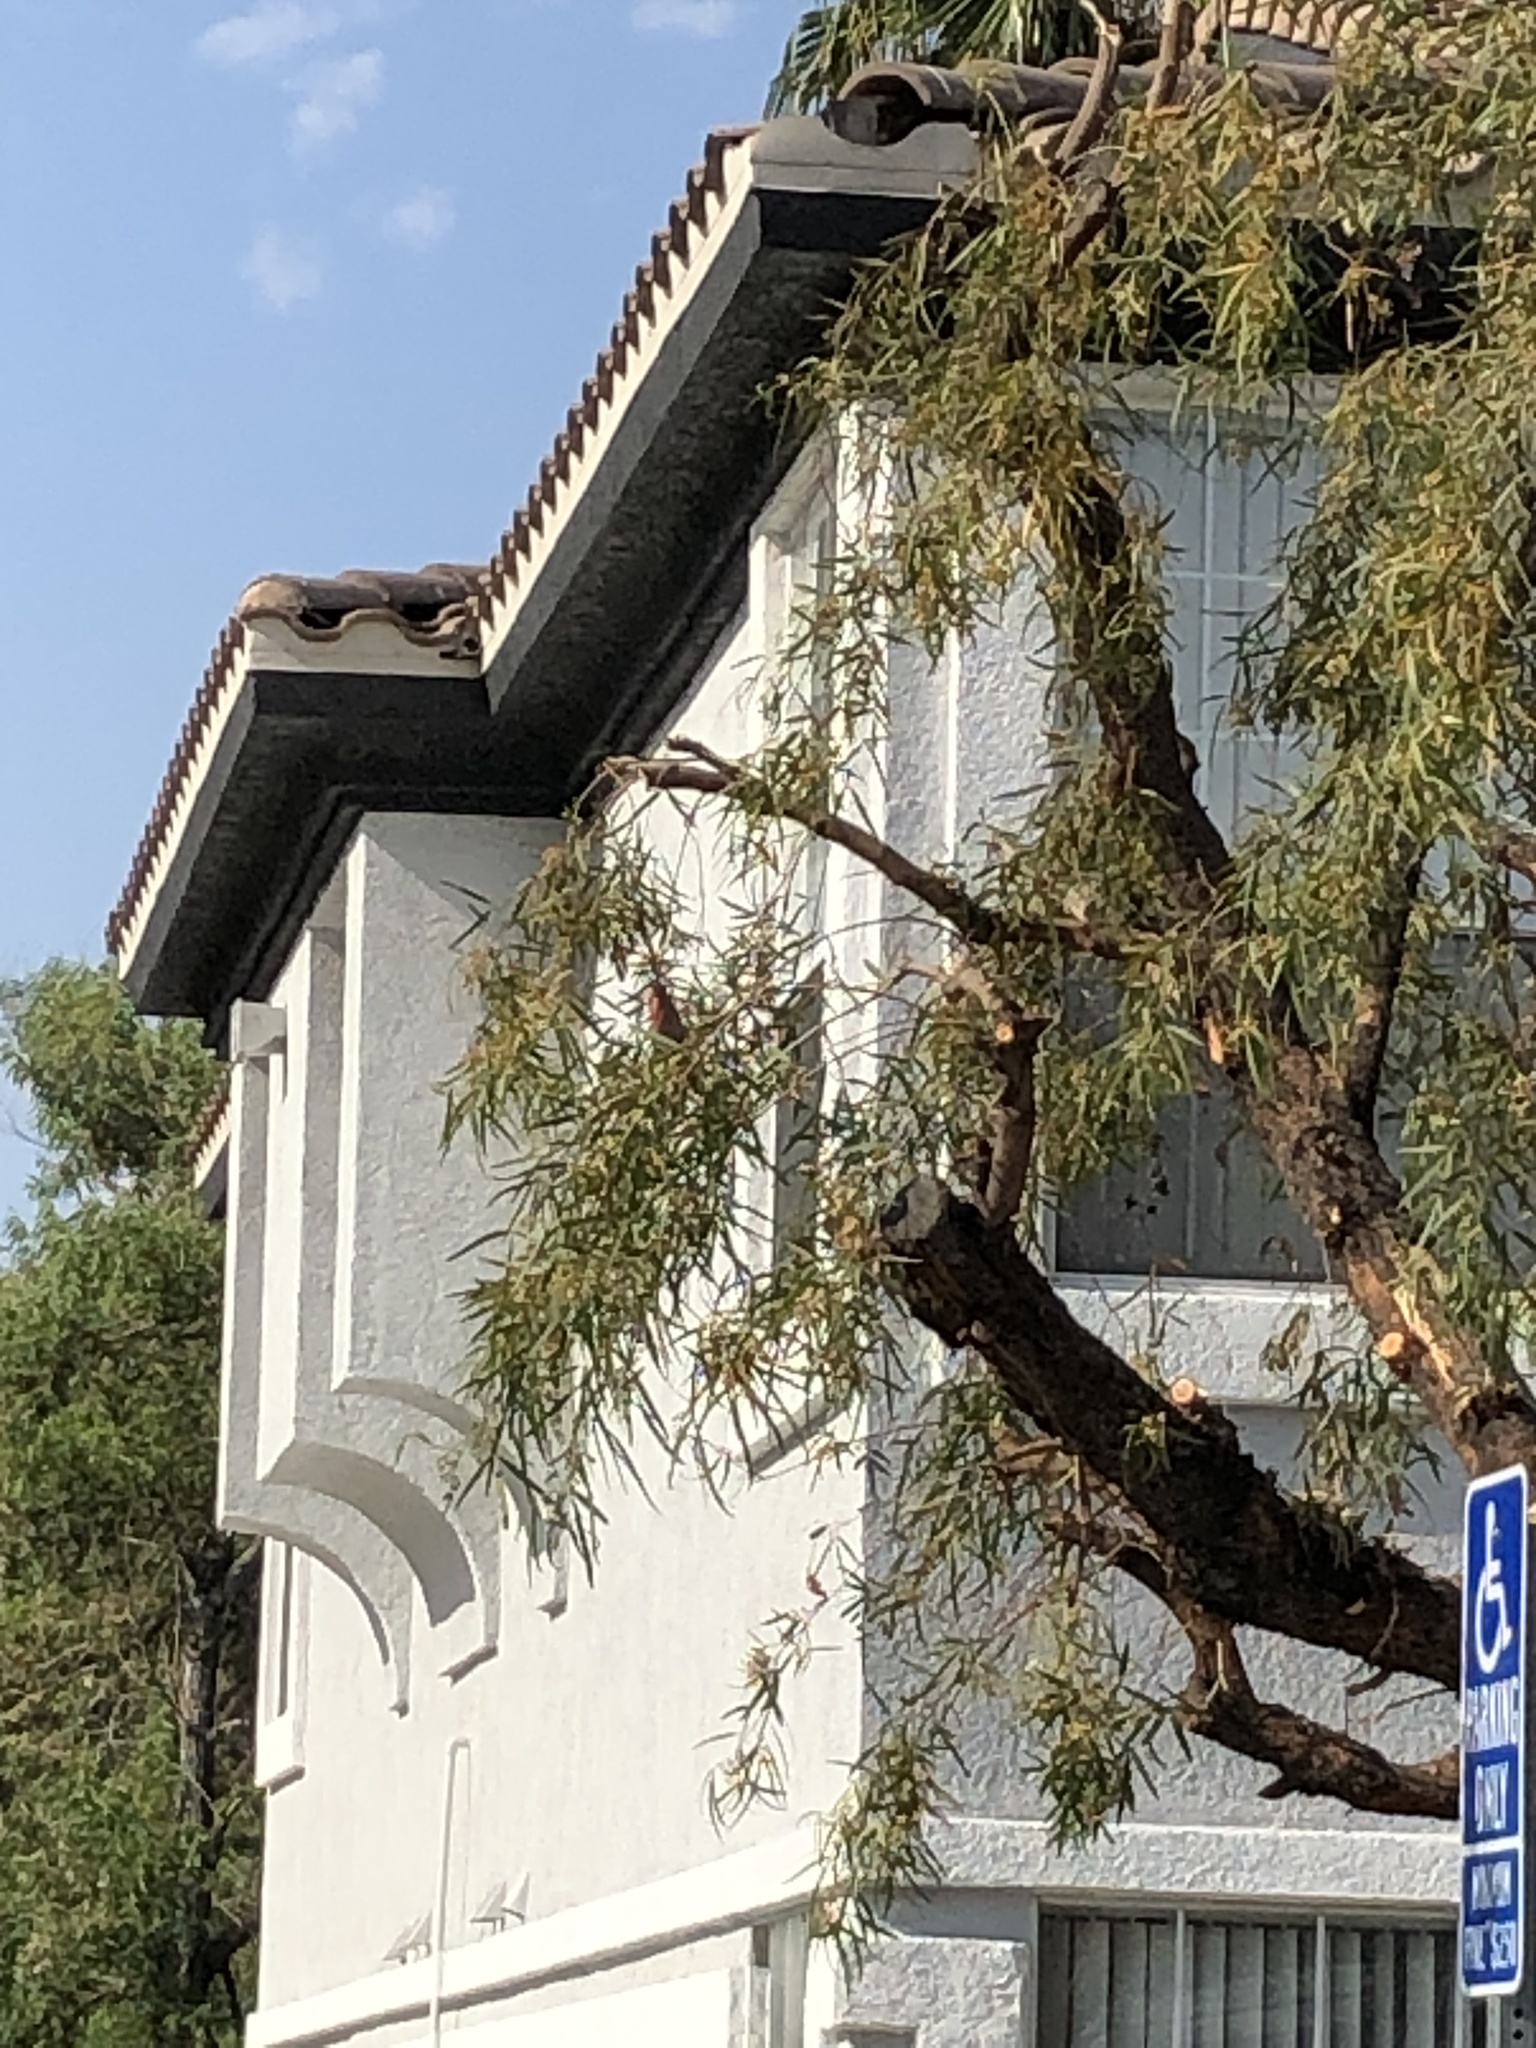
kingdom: Animalia
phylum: Chordata
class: Aves
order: Passeriformes
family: Fringillidae
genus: Haemorhous
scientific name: Haemorhous mexicanus
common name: House finch
